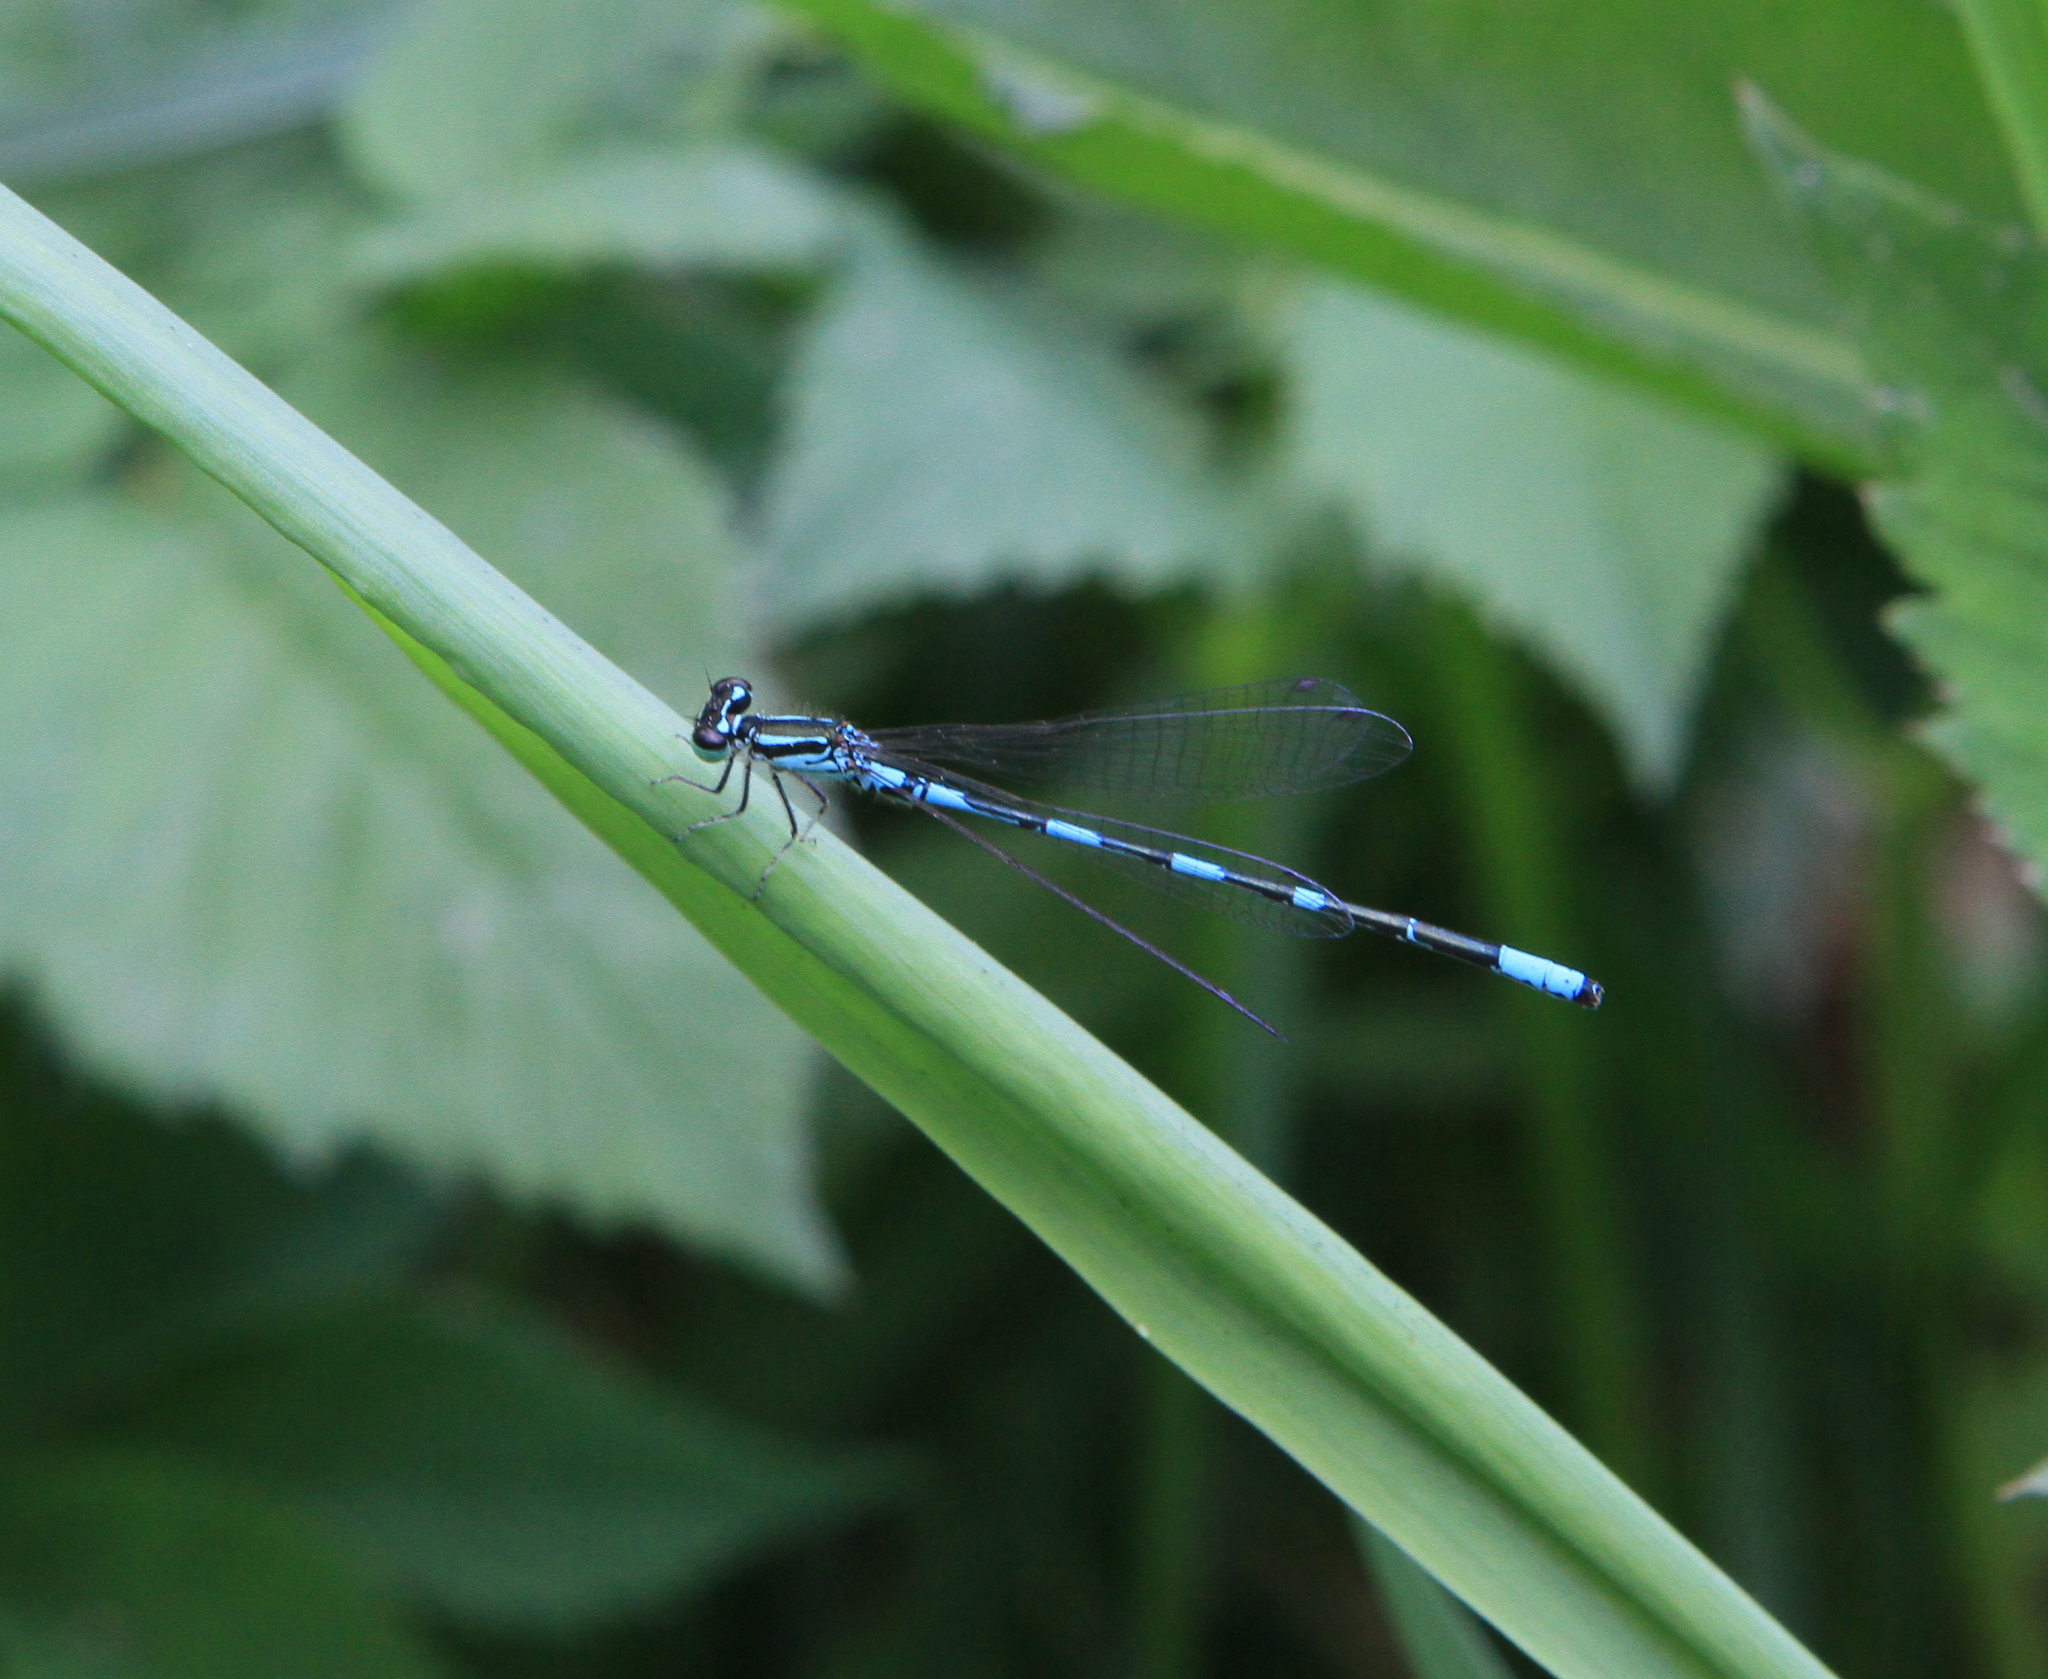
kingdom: Animalia
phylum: Arthropoda
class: Insecta
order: Odonata
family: Coenagrionidae
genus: Coenagrion
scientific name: Coenagrion johanssoni
